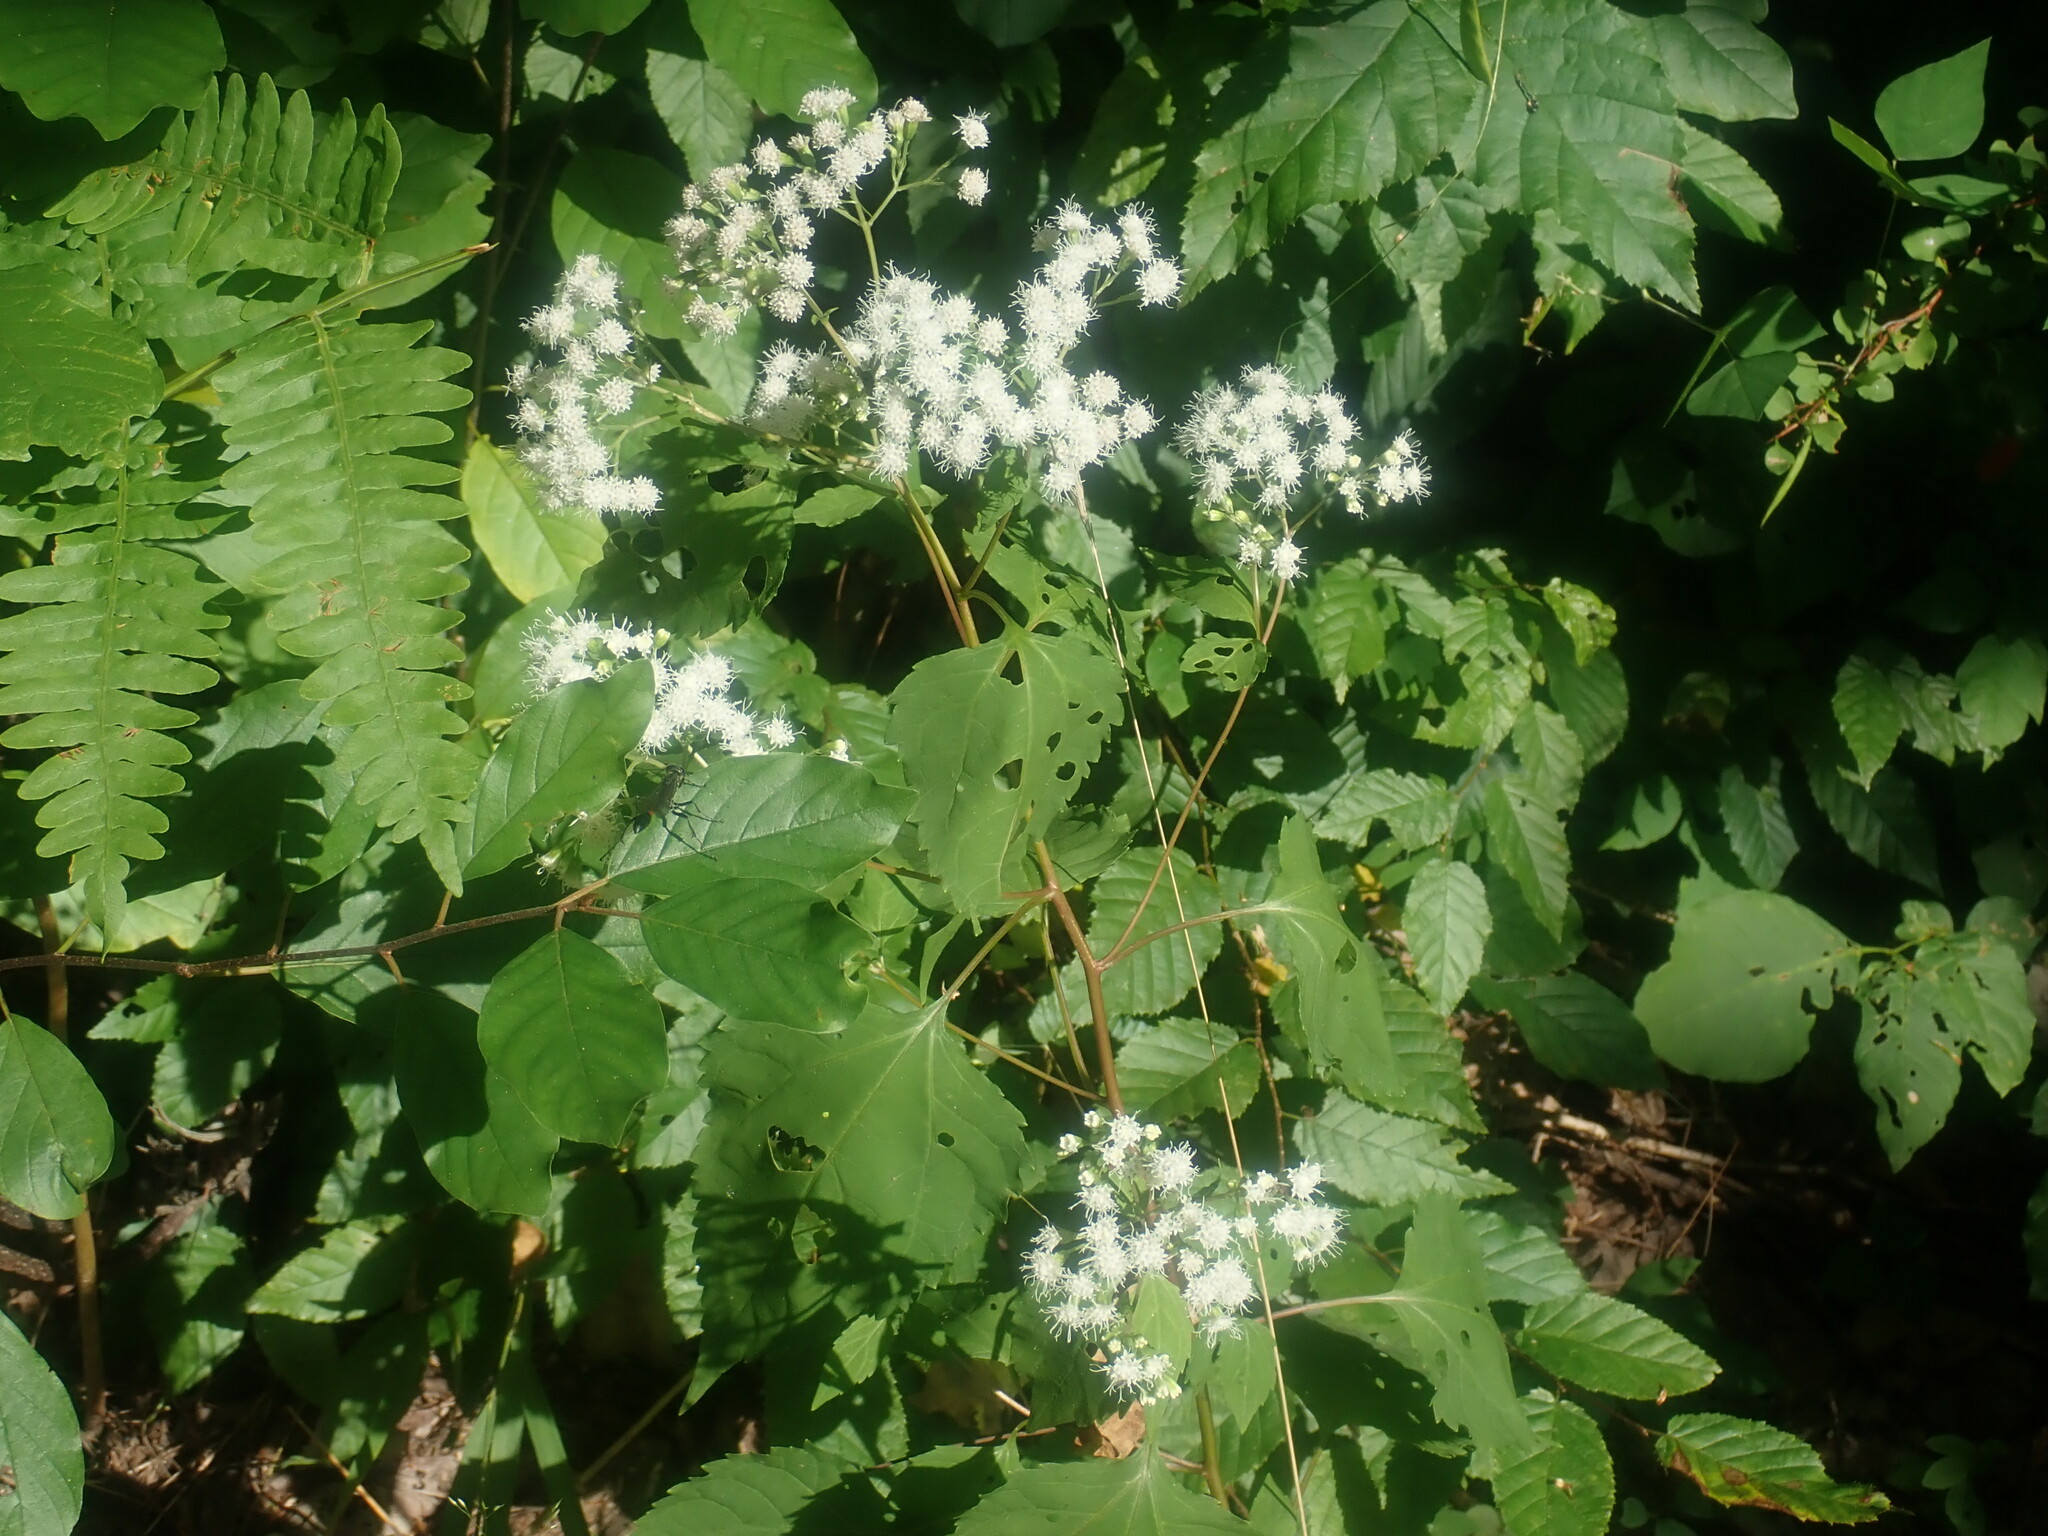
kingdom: Plantae
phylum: Tracheophyta
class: Magnoliopsida
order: Asterales
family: Asteraceae
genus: Ageratina
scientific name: Ageratina altissima
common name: White snakeroot
